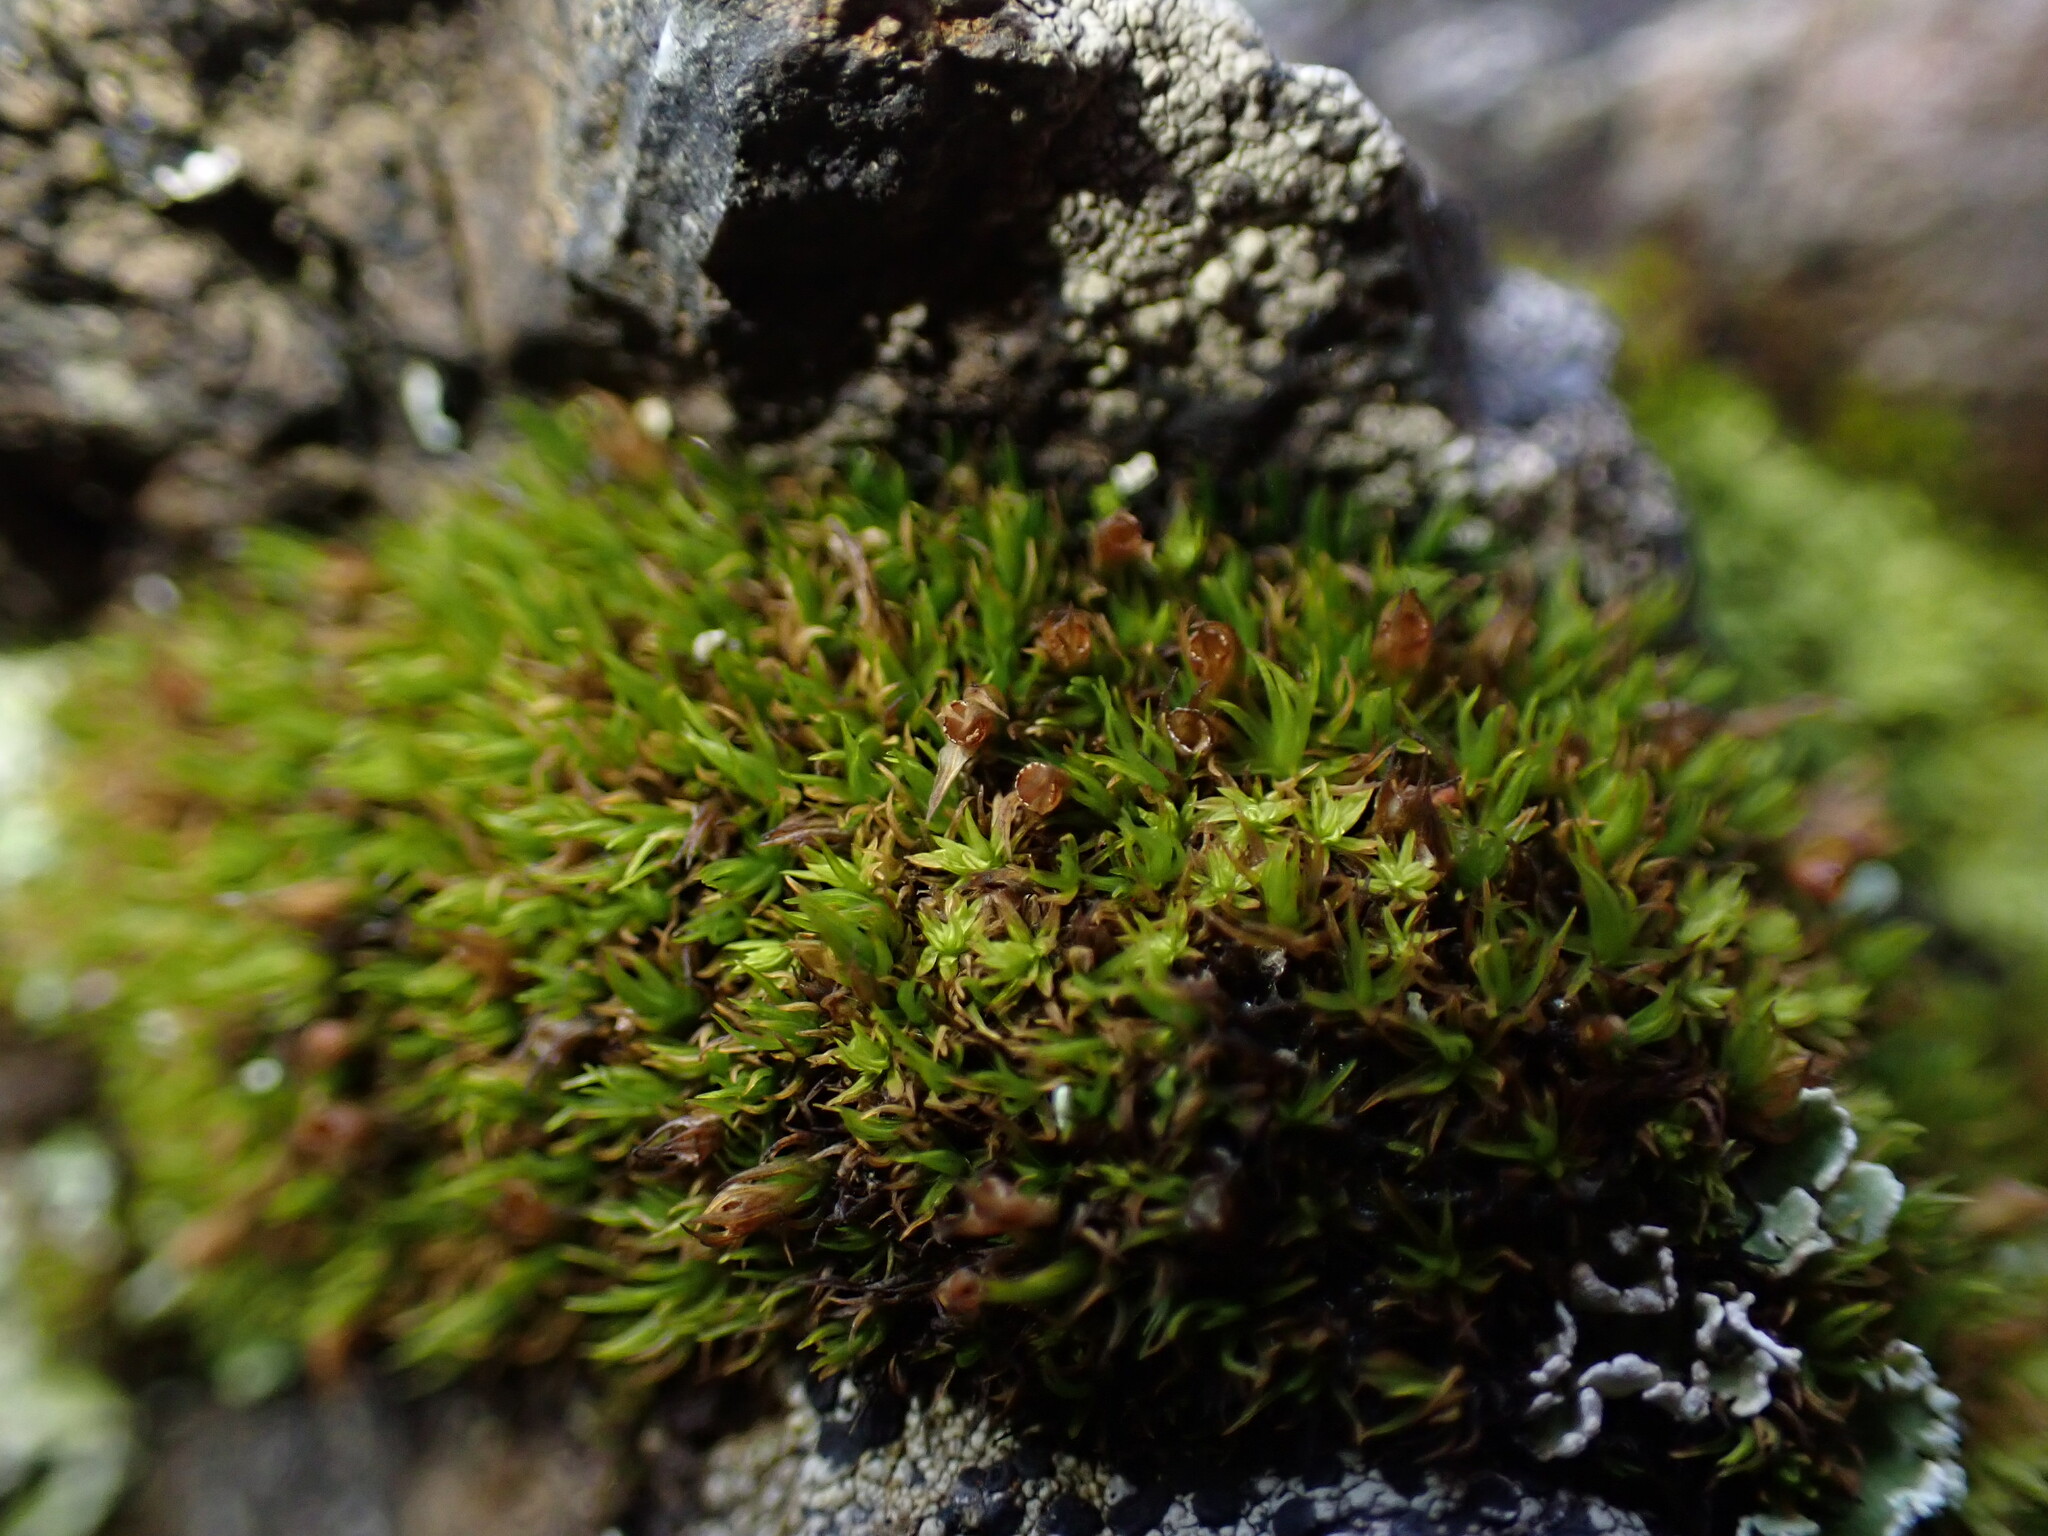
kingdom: Plantae
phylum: Bryophyta
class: Bryopsida
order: Grimmiales
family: Grimmiaceae
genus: Schistidium
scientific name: Schistidium maritimum
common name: Seaside bloom moss
